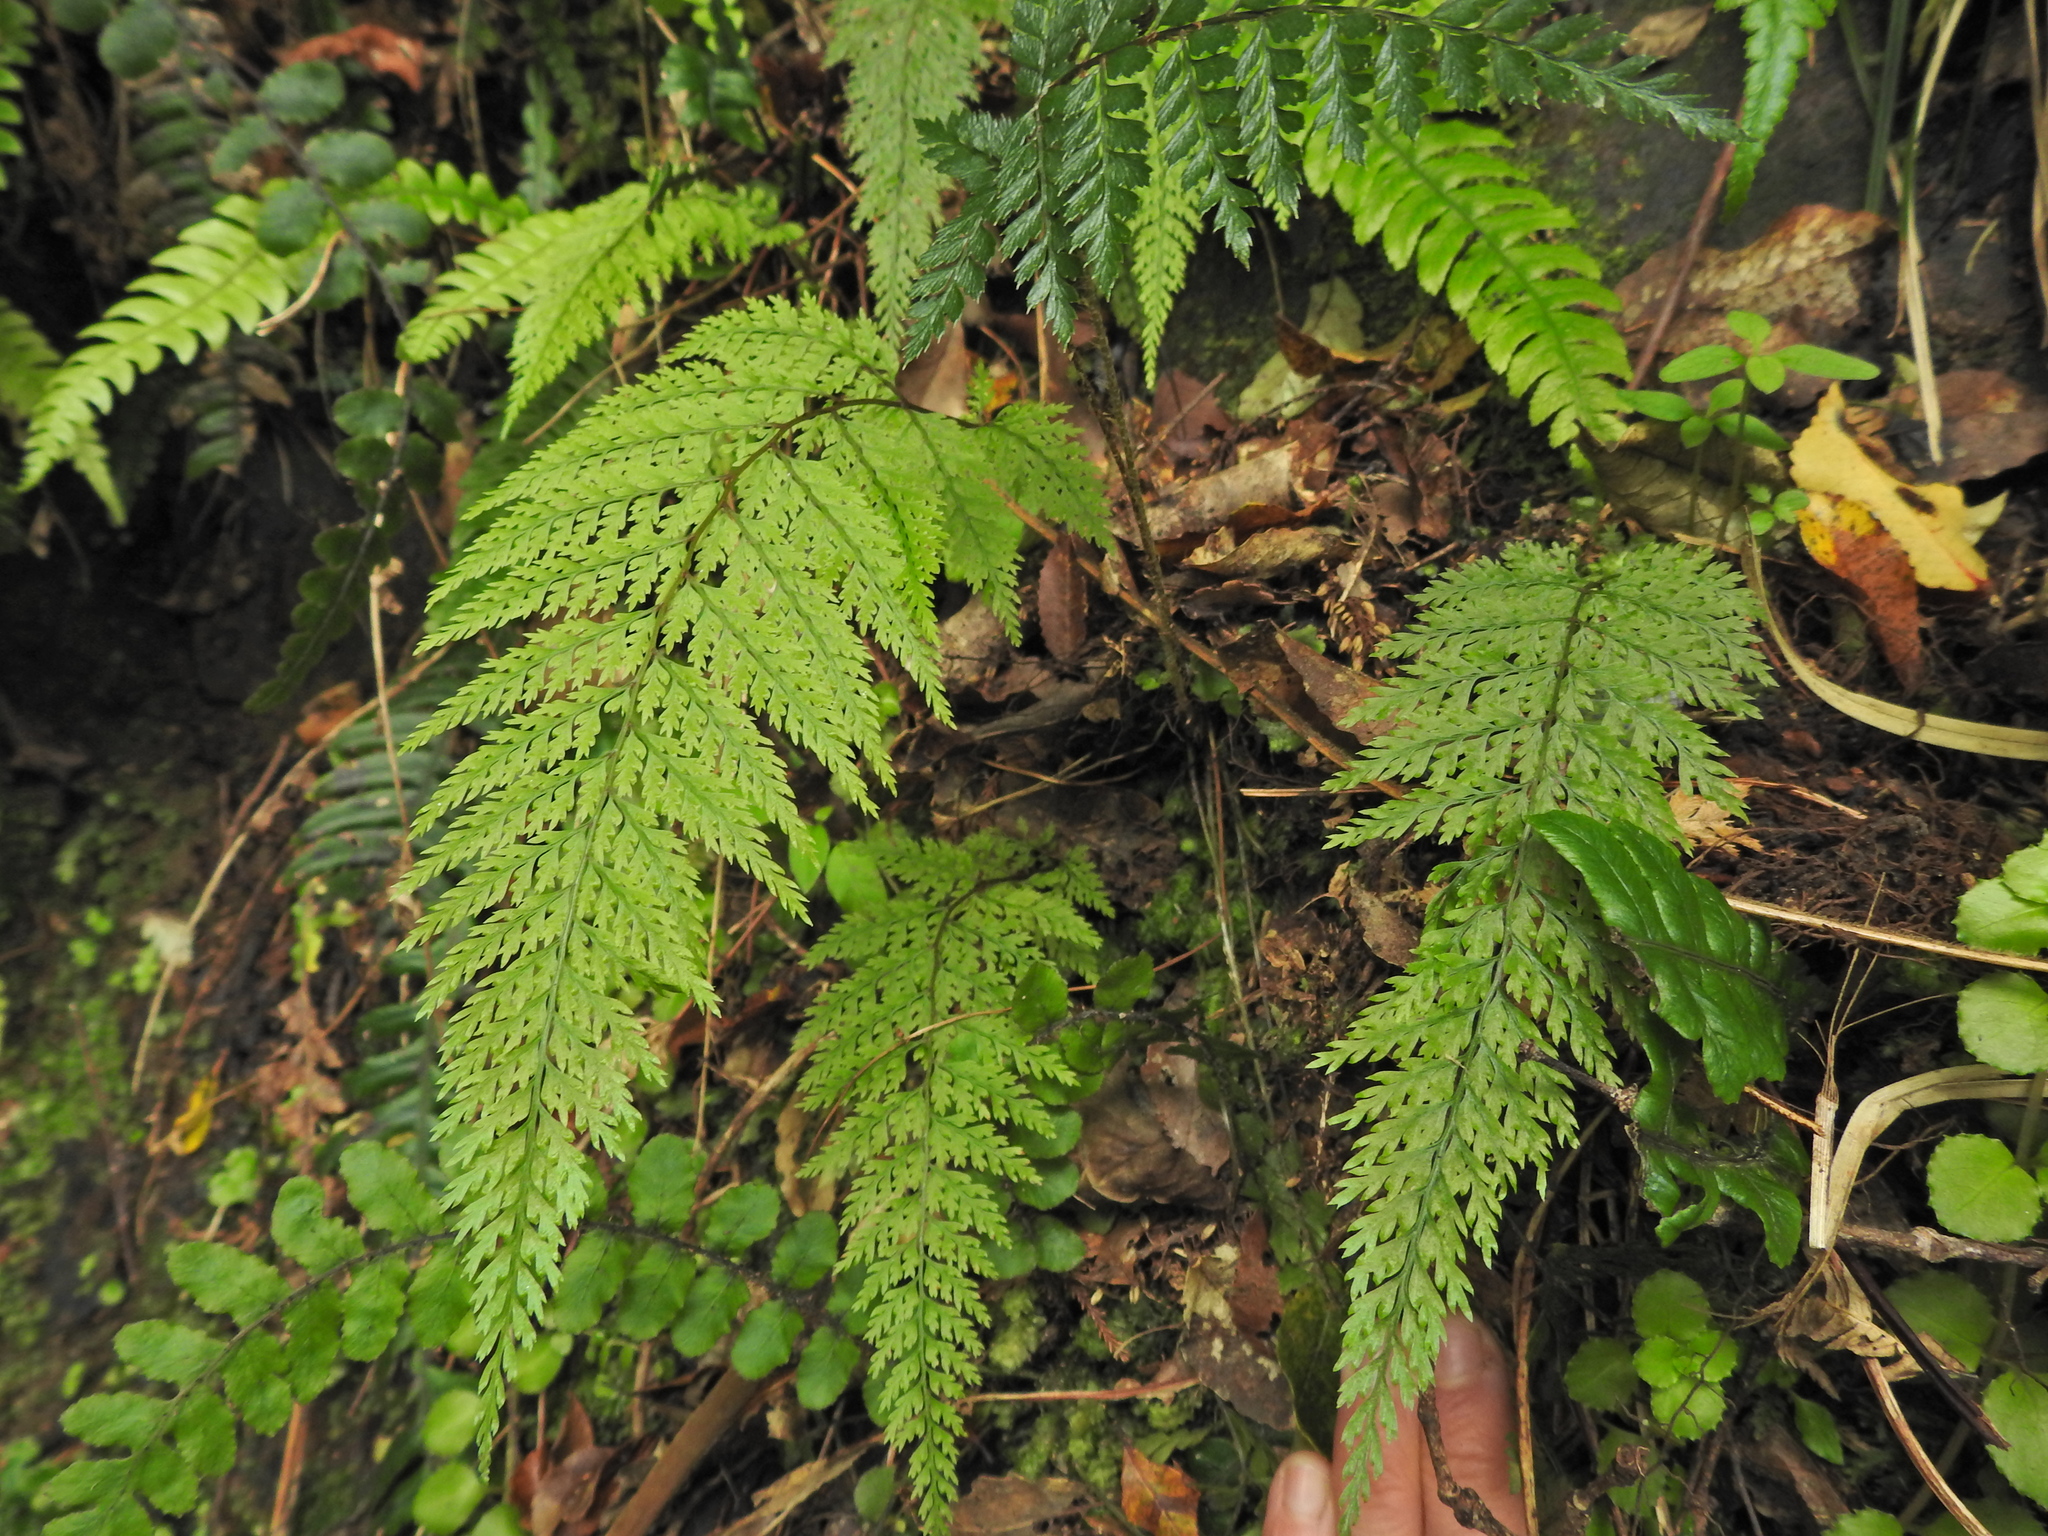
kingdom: Plantae
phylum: Tracheophyta
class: Polypodiopsida
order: Polypodiales
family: Dennstaedtiaceae
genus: Dennstaedtia
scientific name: Dennstaedtia novae-zelandiae
